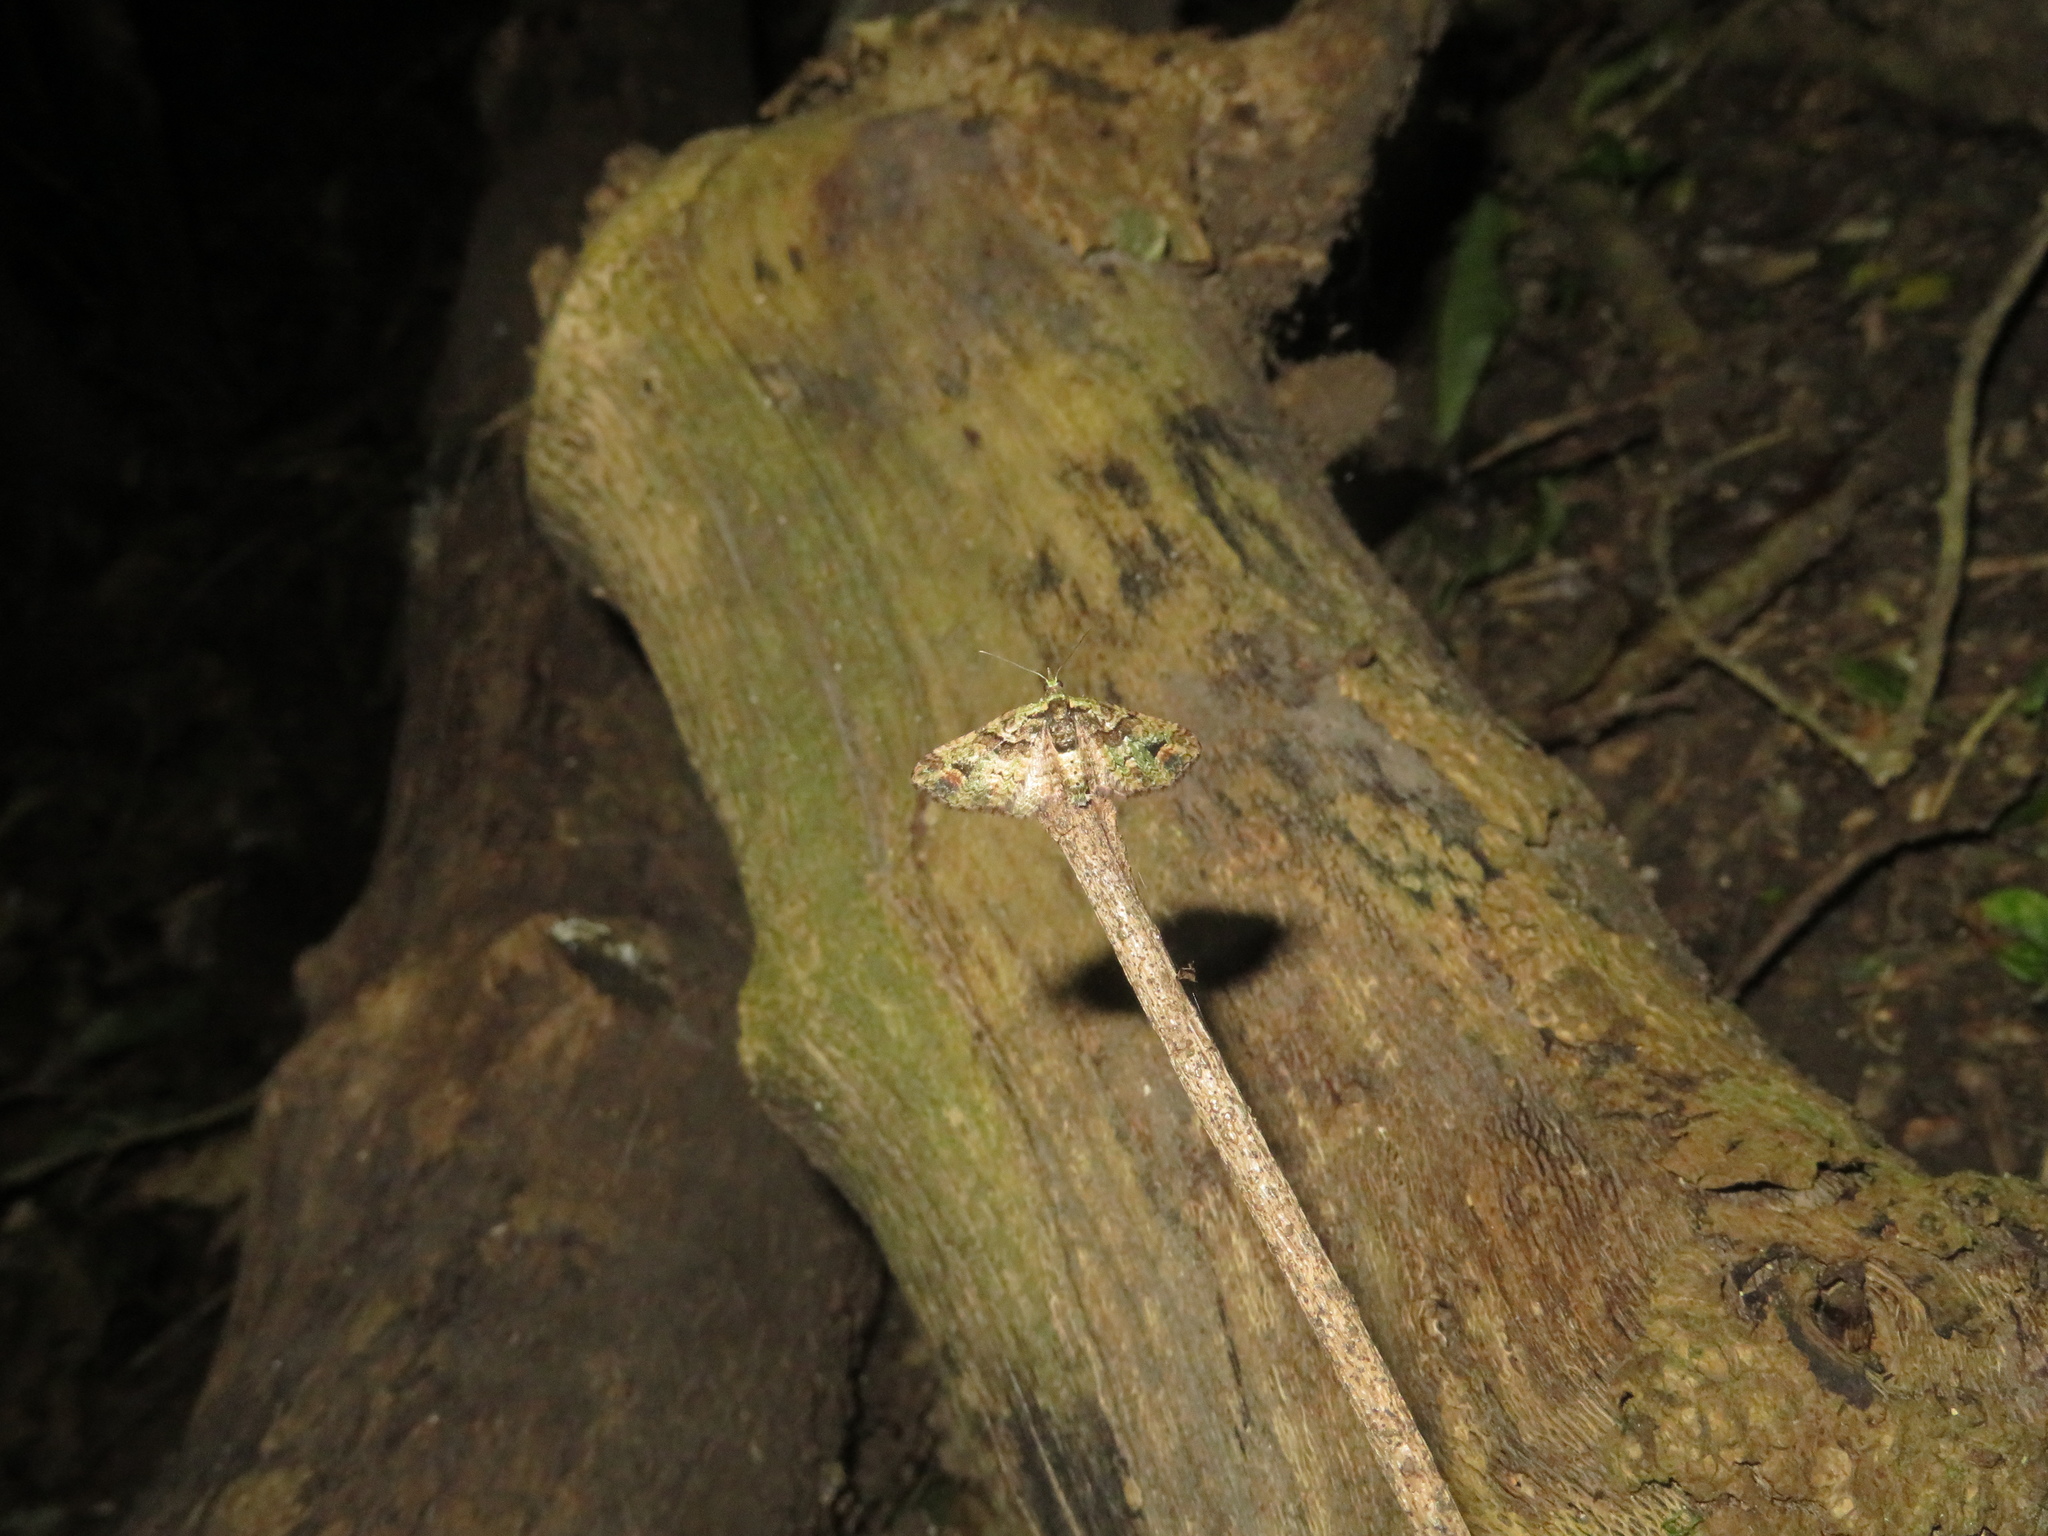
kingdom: Animalia
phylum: Arthropoda
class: Insecta
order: Lepidoptera
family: Geometridae
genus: Idaea
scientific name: Idaea mutanda
